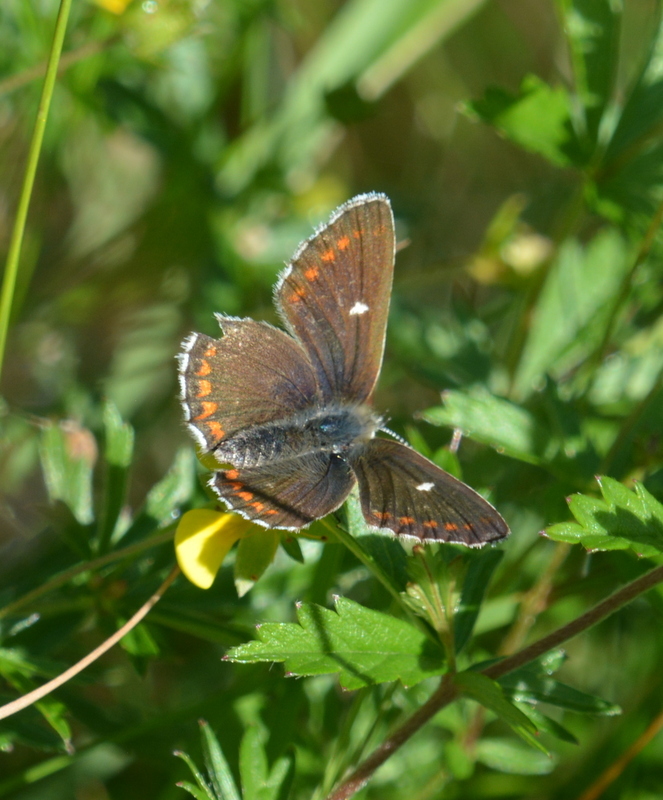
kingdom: Animalia
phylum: Arthropoda
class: Insecta
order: Lepidoptera
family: Lycaenidae
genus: Aricia
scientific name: Aricia artaxerxes
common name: Northern brown argus
